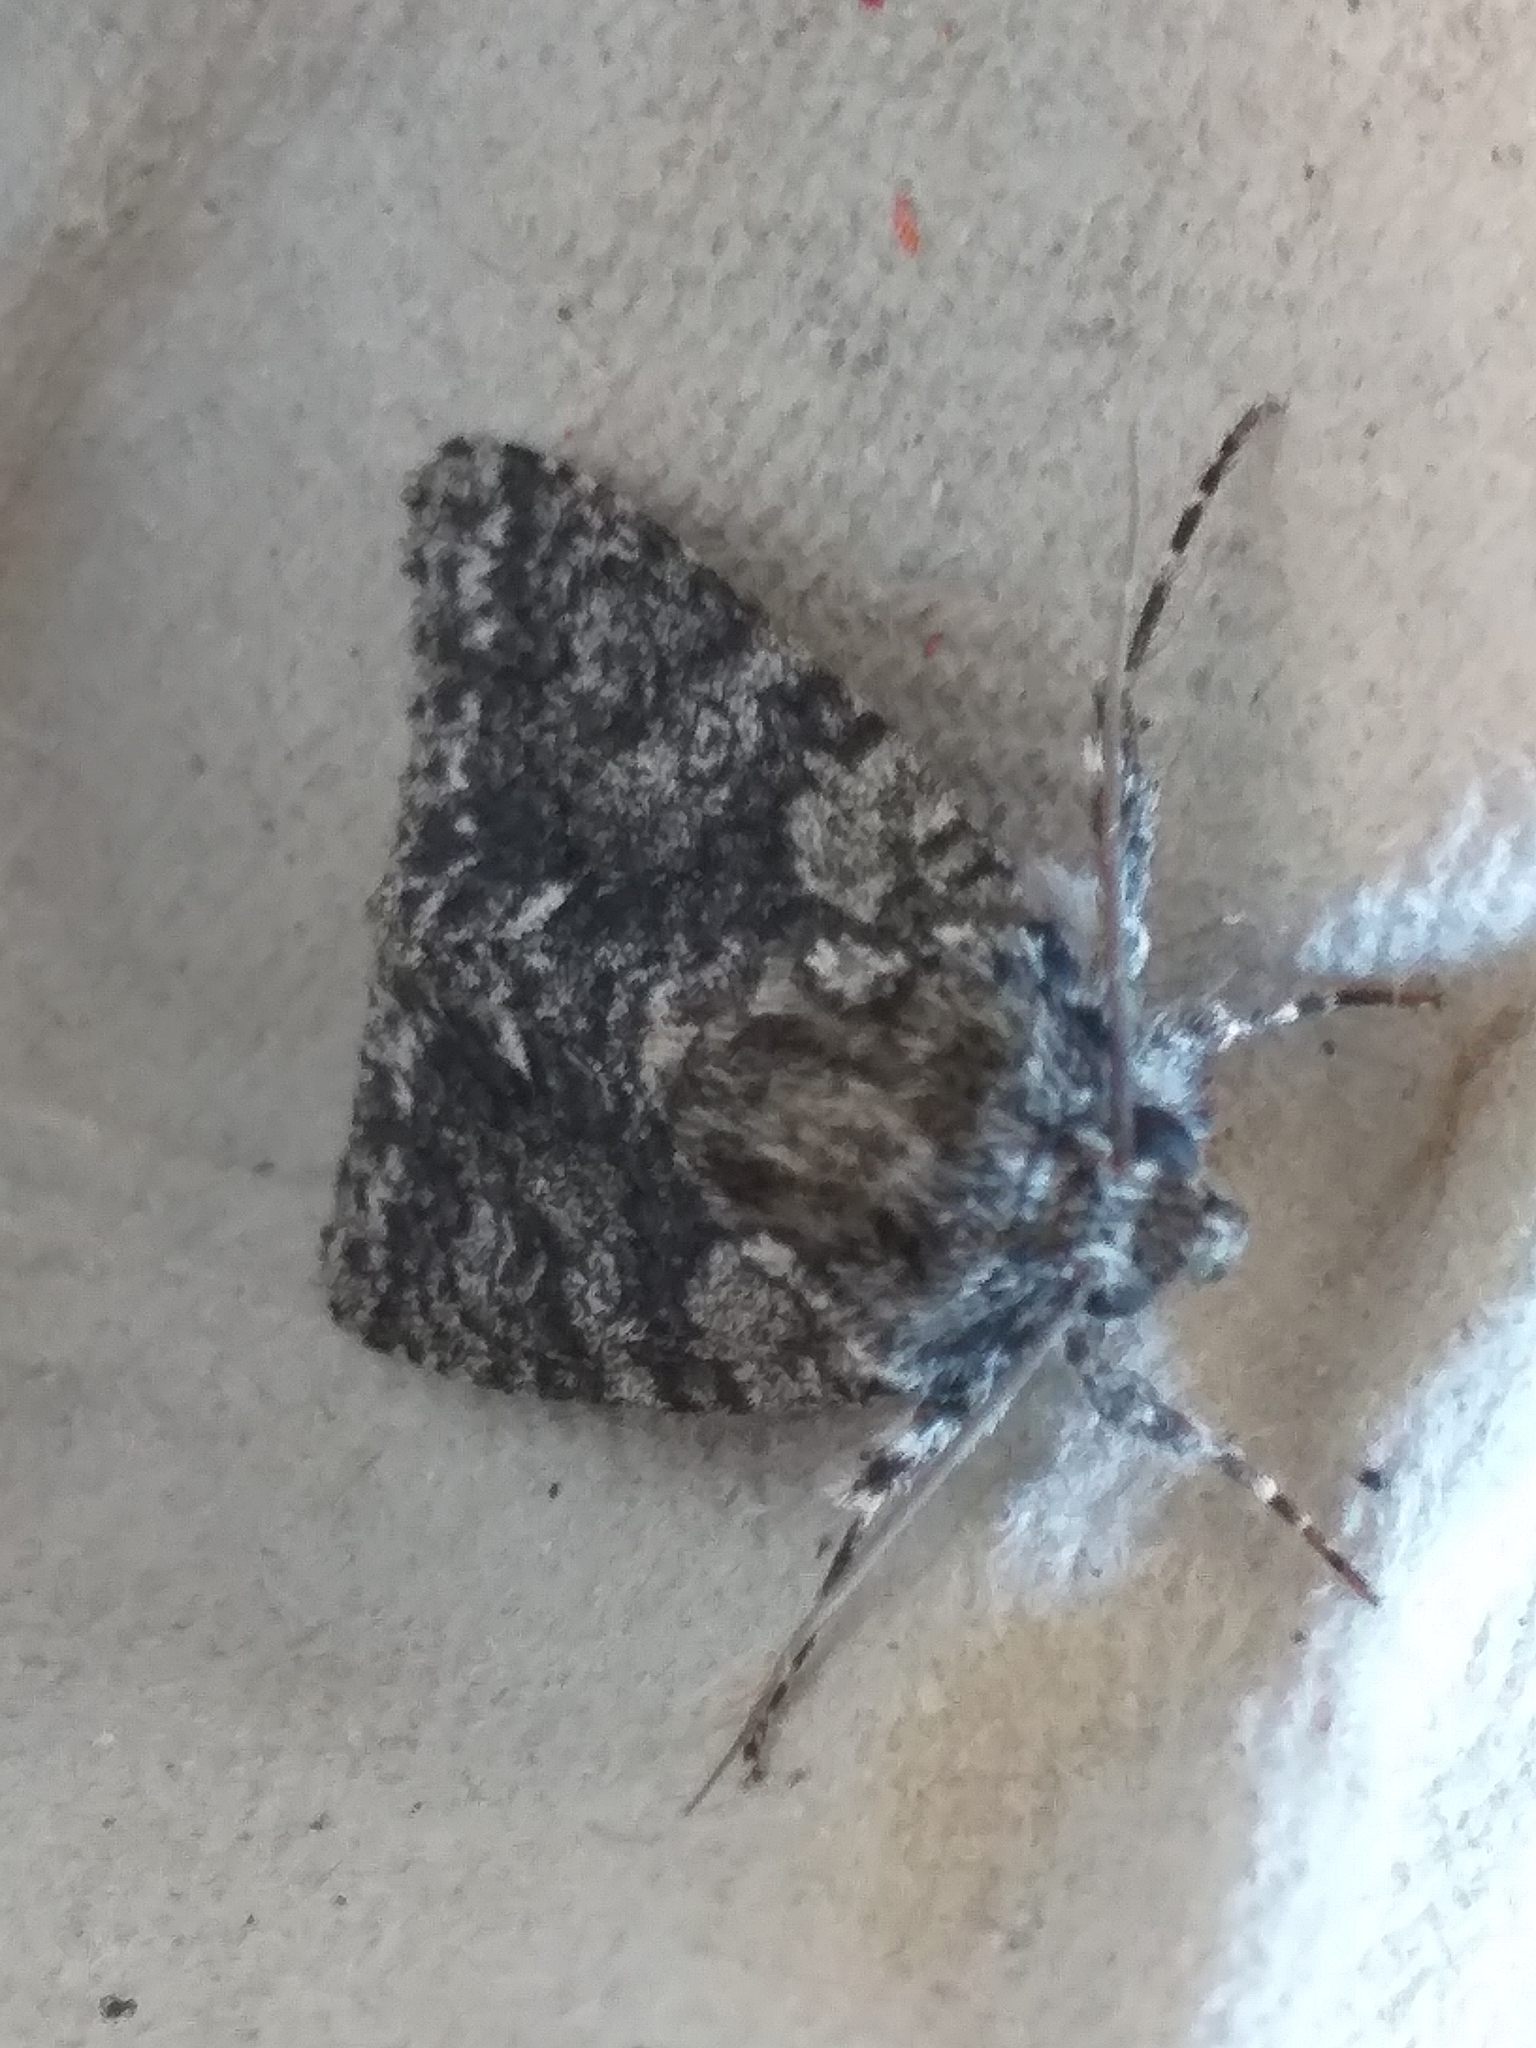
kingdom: Animalia
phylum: Arthropoda
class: Insecta
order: Lepidoptera
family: Noctuidae
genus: Acronicta
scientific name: Acronicta rumicis
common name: Knot grass
